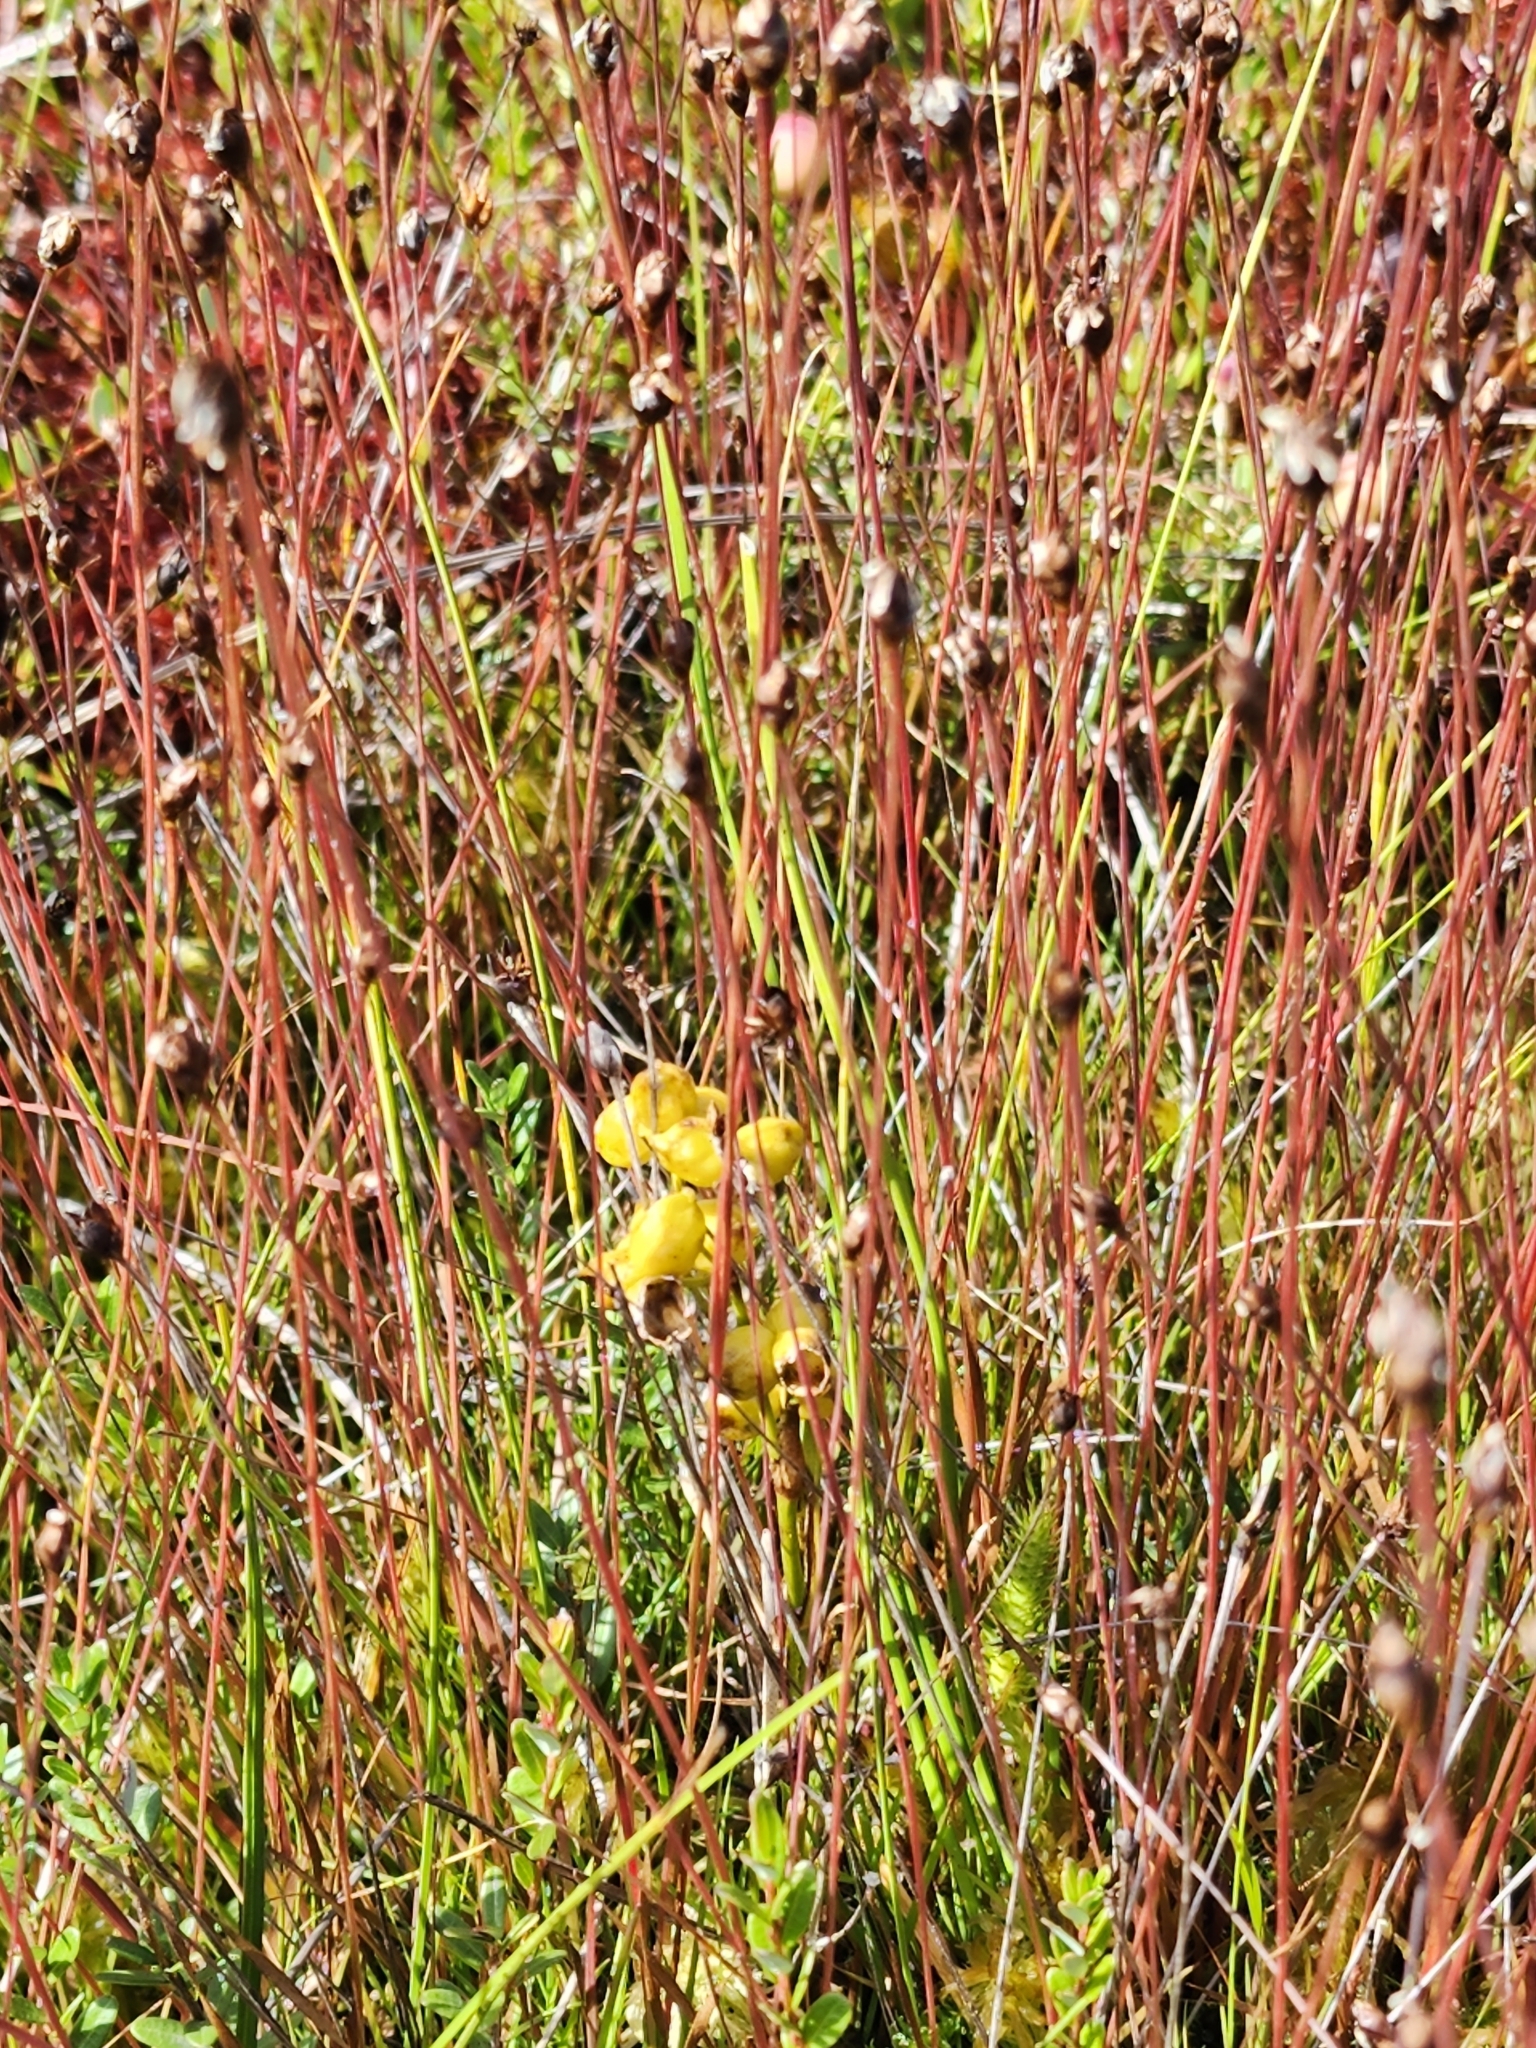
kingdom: Plantae
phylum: Tracheophyta
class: Liliopsida
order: Alismatales
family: Scheuchzeriaceae
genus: Scheuchzeria
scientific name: Scheuchzeria palustris
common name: Rannoch-rush
